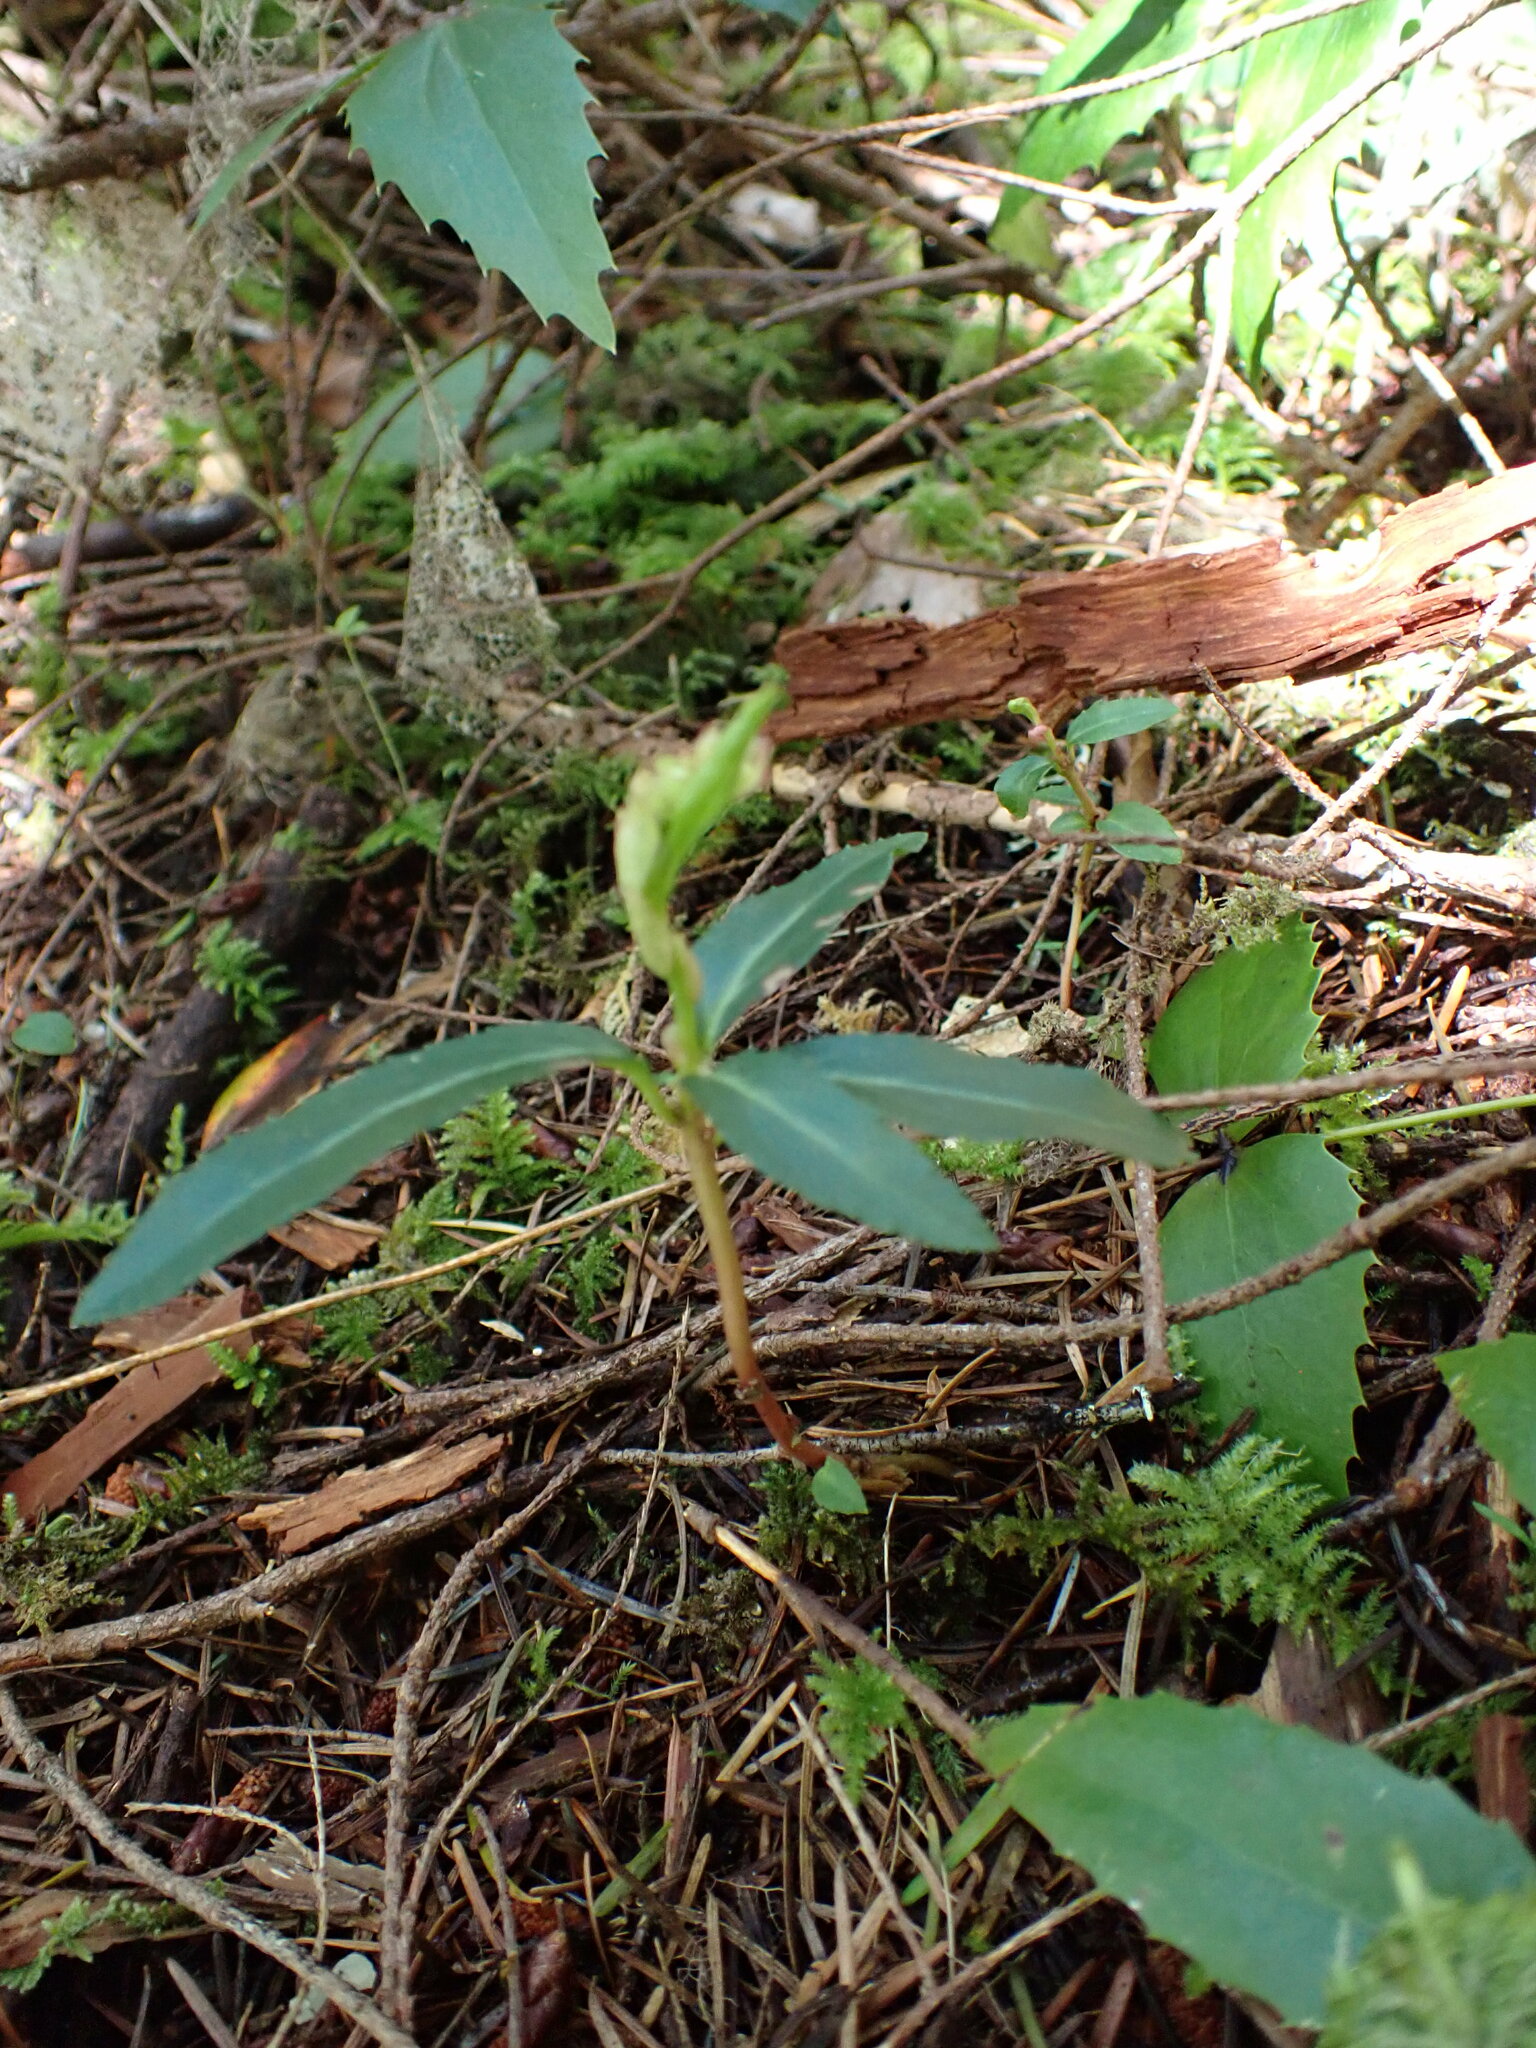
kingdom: Plantae
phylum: Tracheophyta
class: Magnoliopsida
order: Ericales
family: Ericaceae
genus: Chimaphila
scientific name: Chimaphila menziesii
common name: Menzies' pipsissewa
